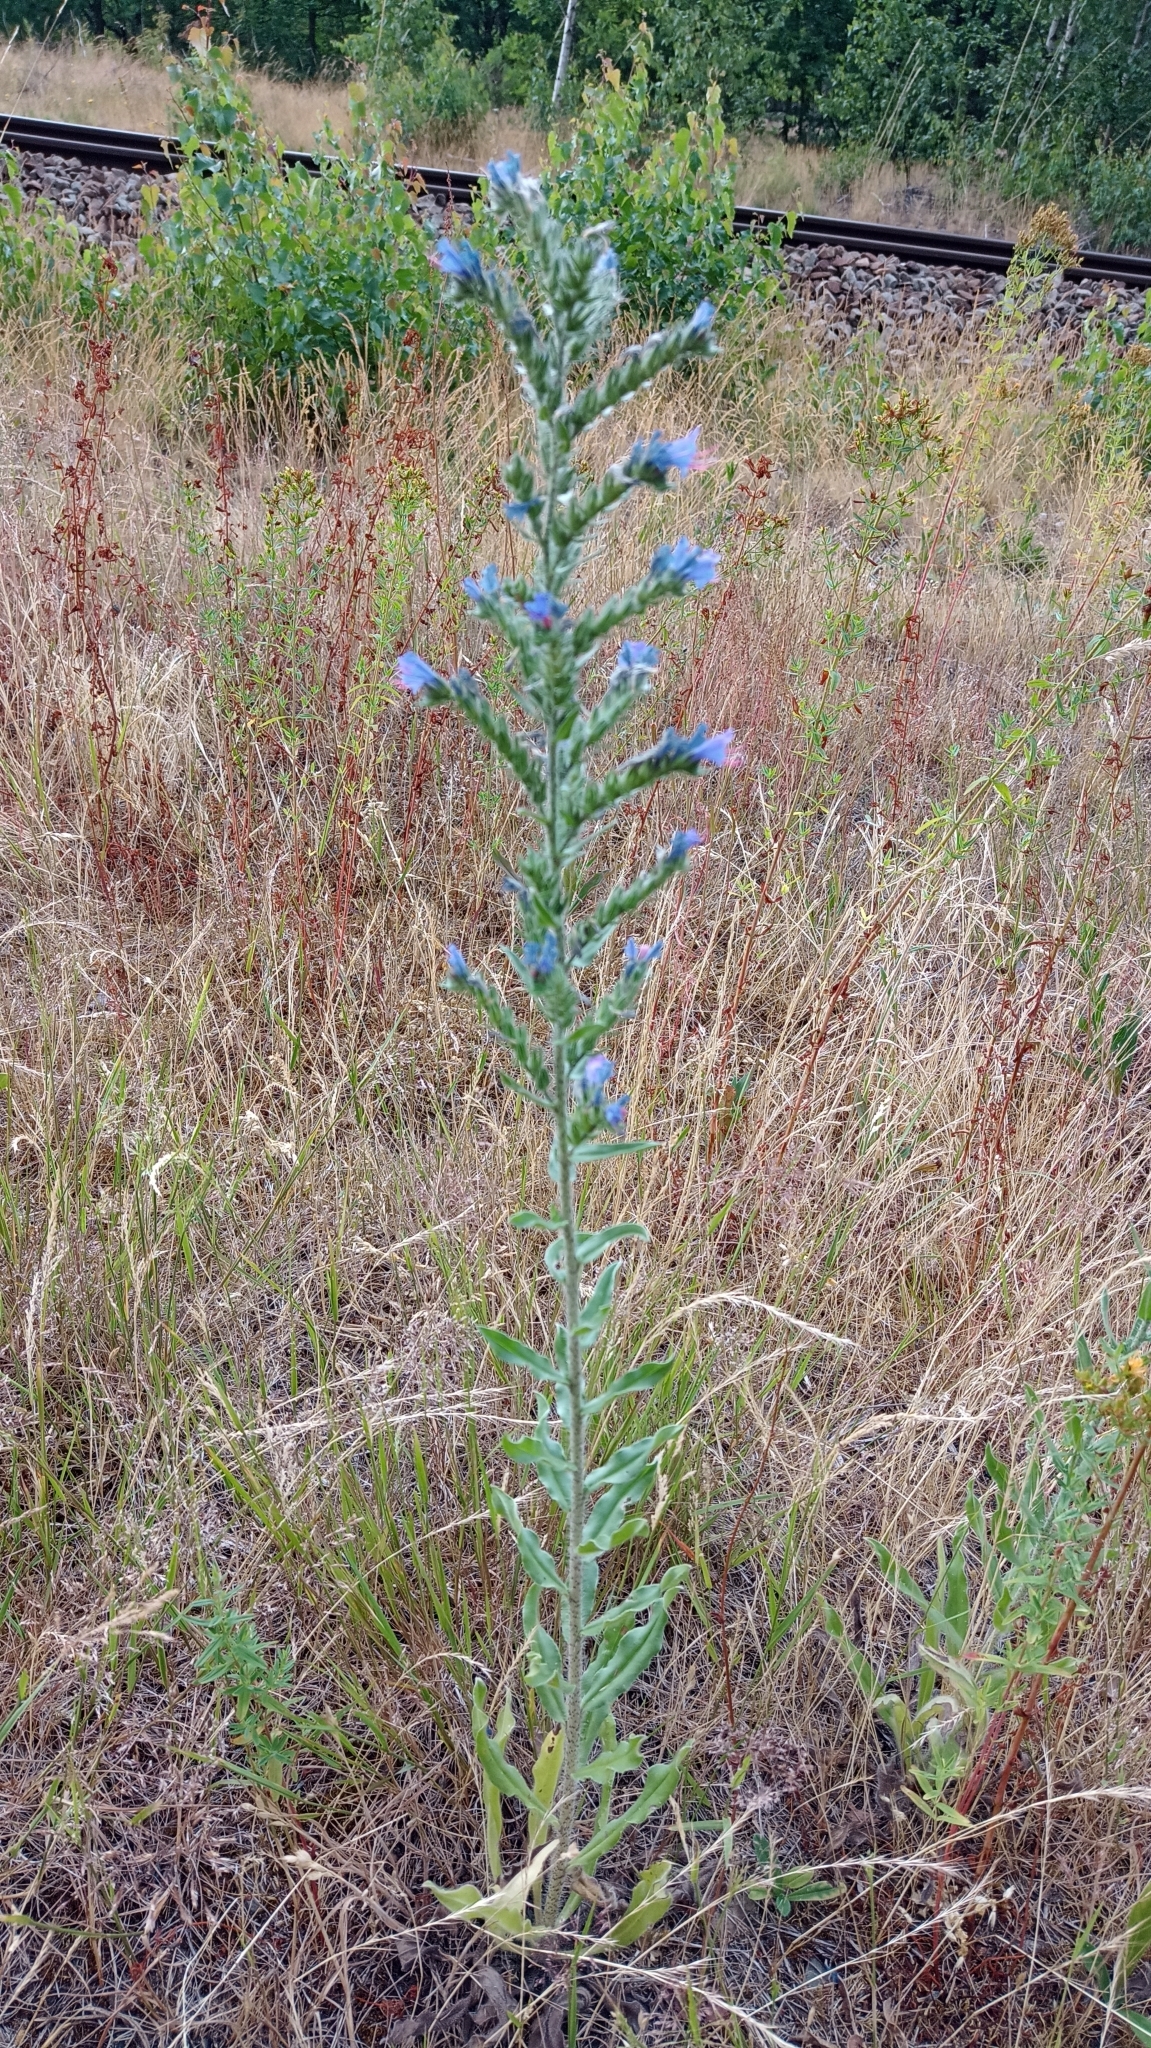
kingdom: Plantae
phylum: Tracheophyta
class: Magnoliopsida
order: Boraginales
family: Boraginaceae
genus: Echium
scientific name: Echium vulgare
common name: Common viper's bugloss
